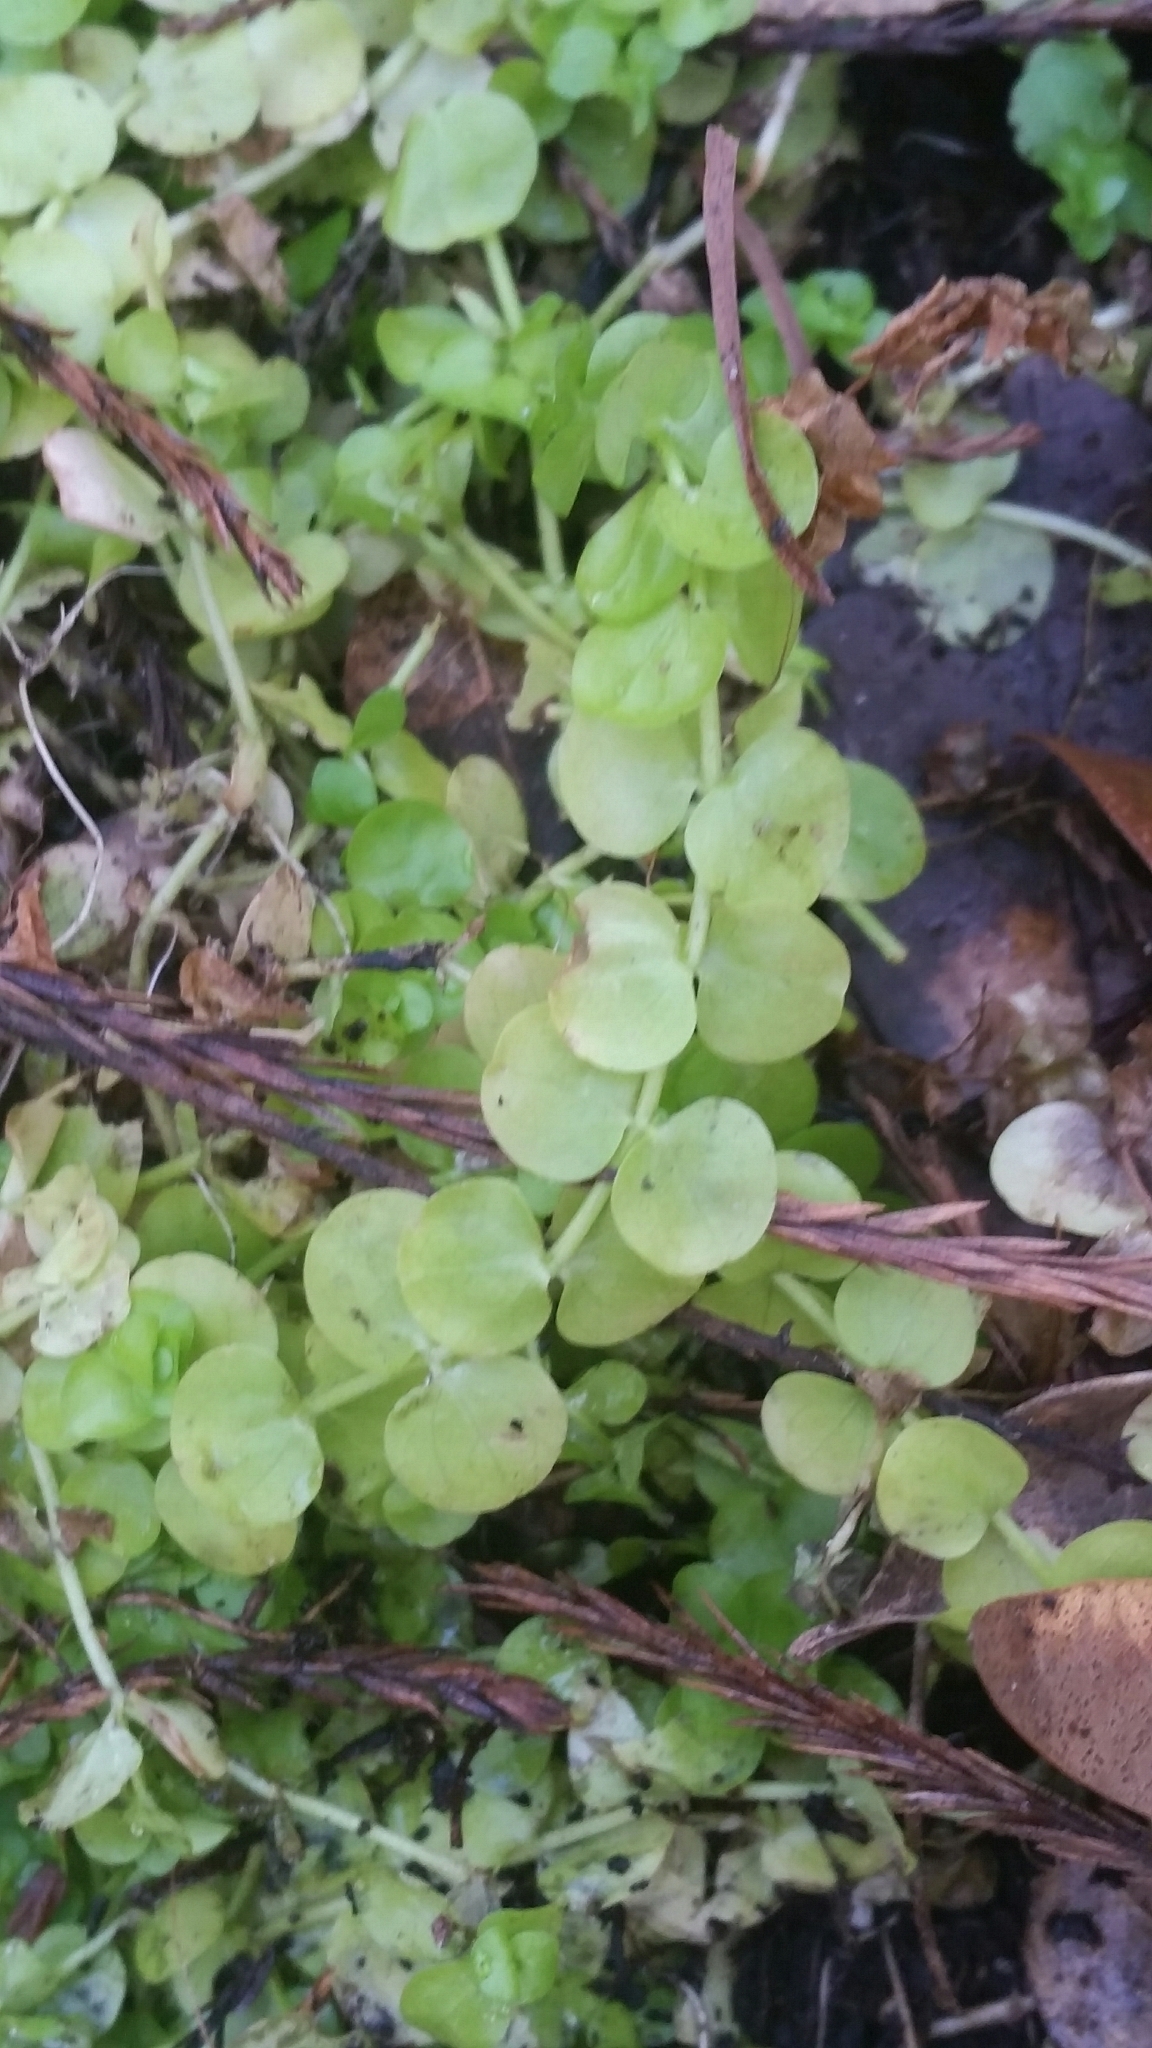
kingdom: Plantae
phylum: Tracheophyta
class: Magnoliopsida
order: Lamiales
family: Linderniaceae
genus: Micranthemum
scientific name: Micranthemum umbrosum
